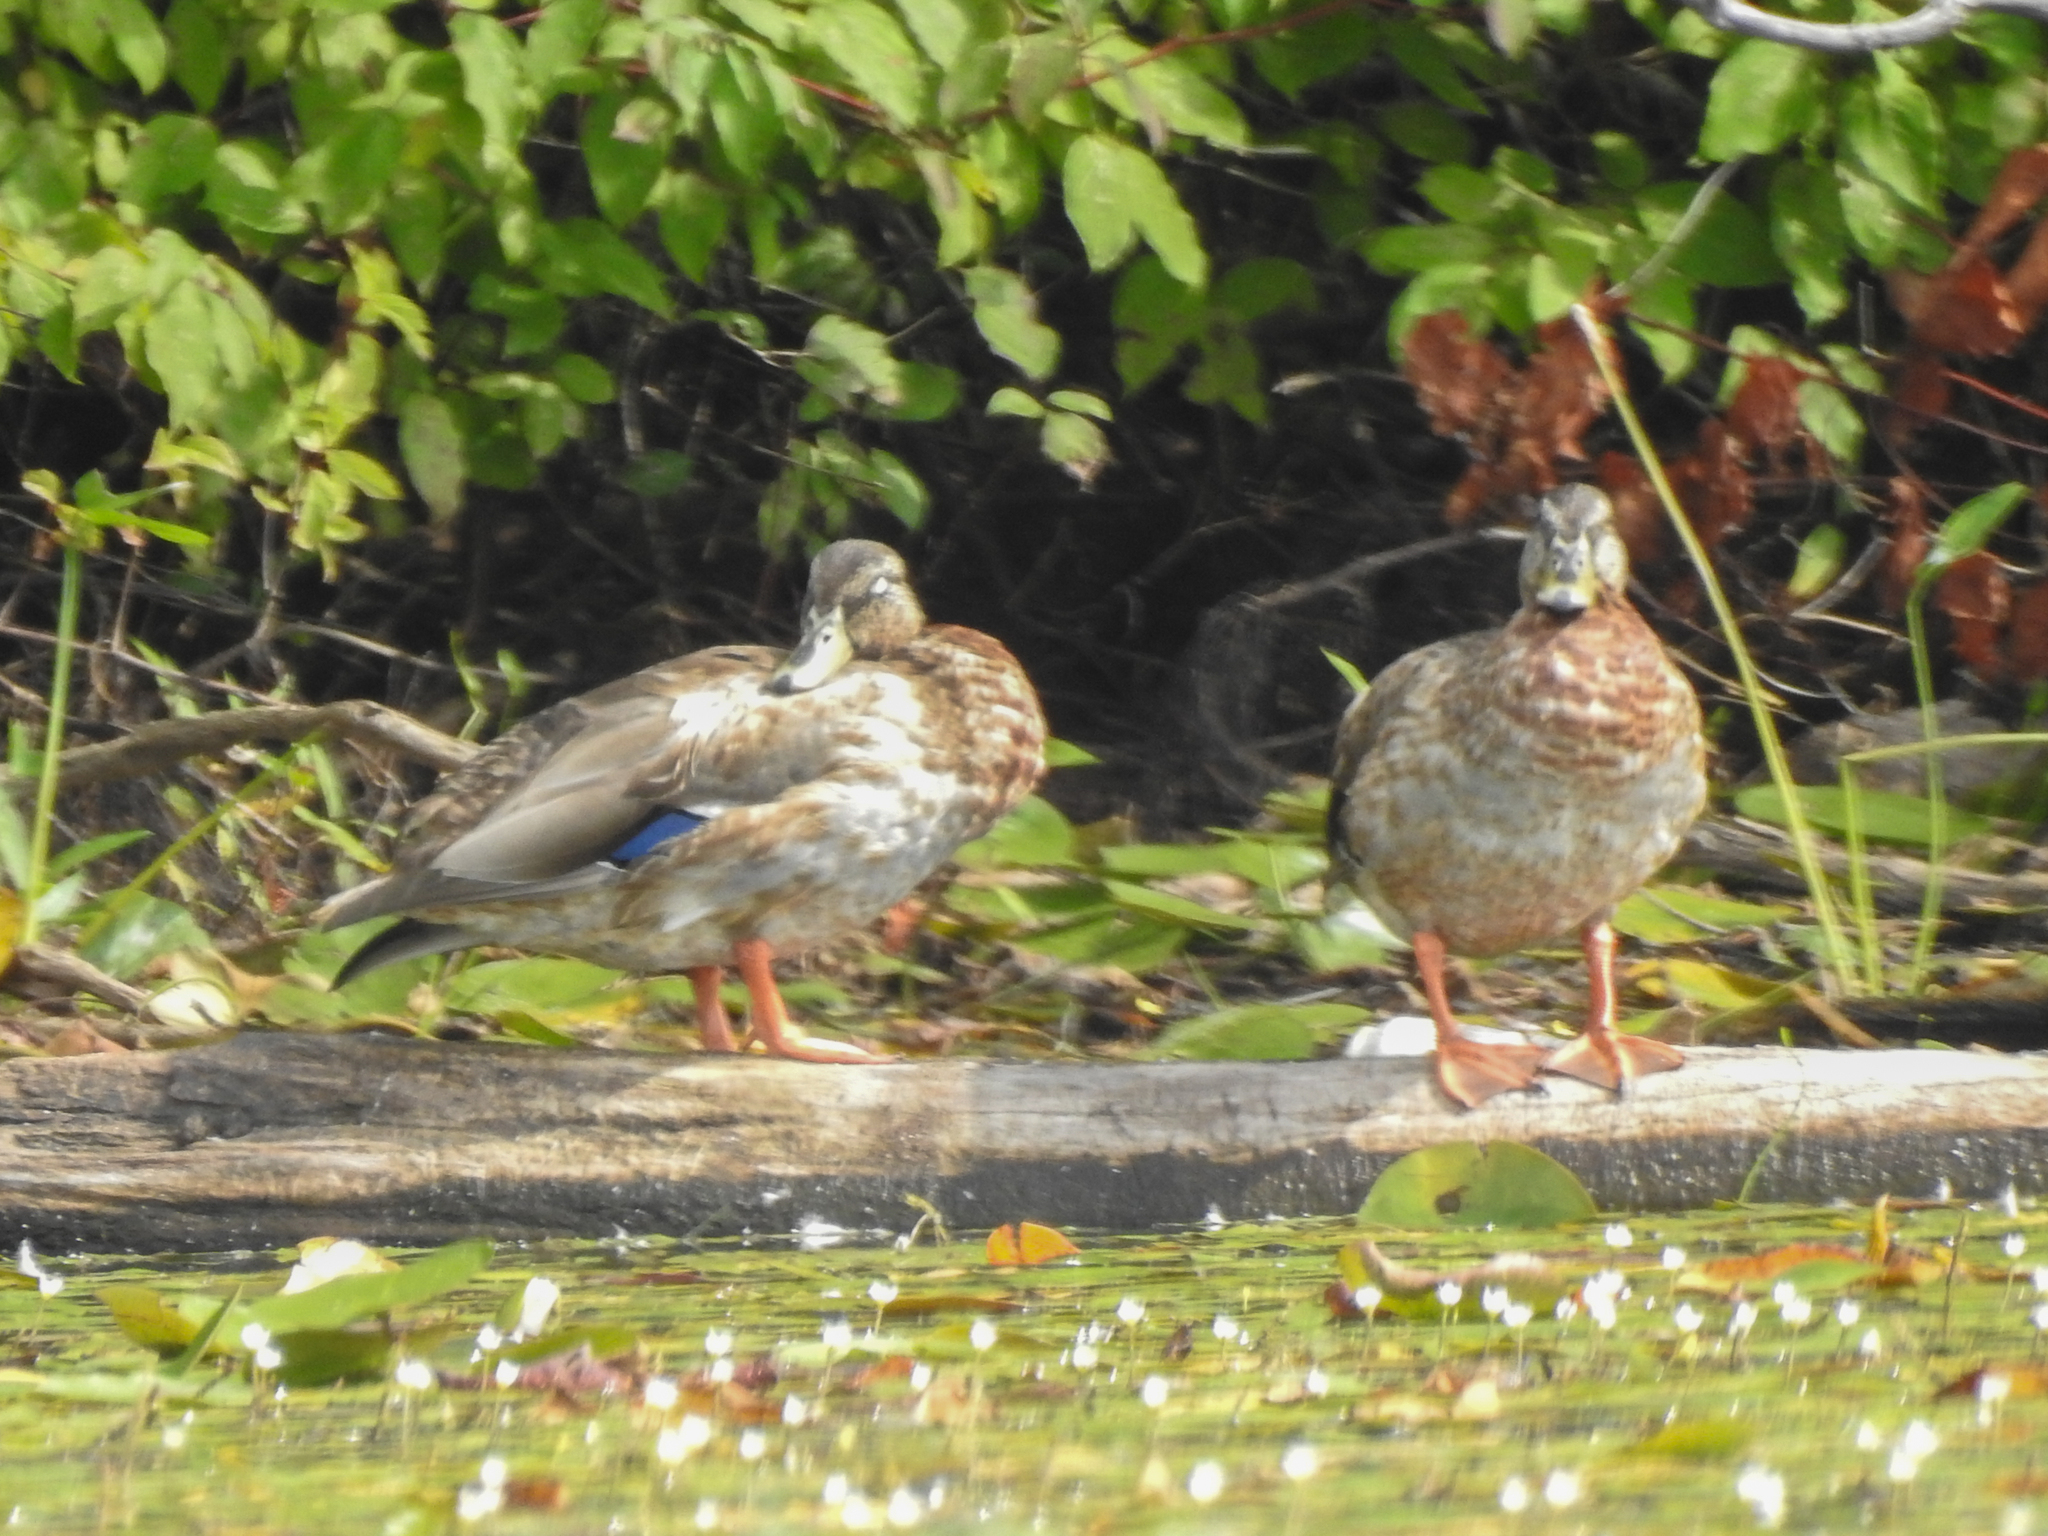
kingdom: Animalia
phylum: Chordata
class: Aves
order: Anseriformes
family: Anatidae
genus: Anas
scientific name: Anas platyrhynchos
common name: Mallard
